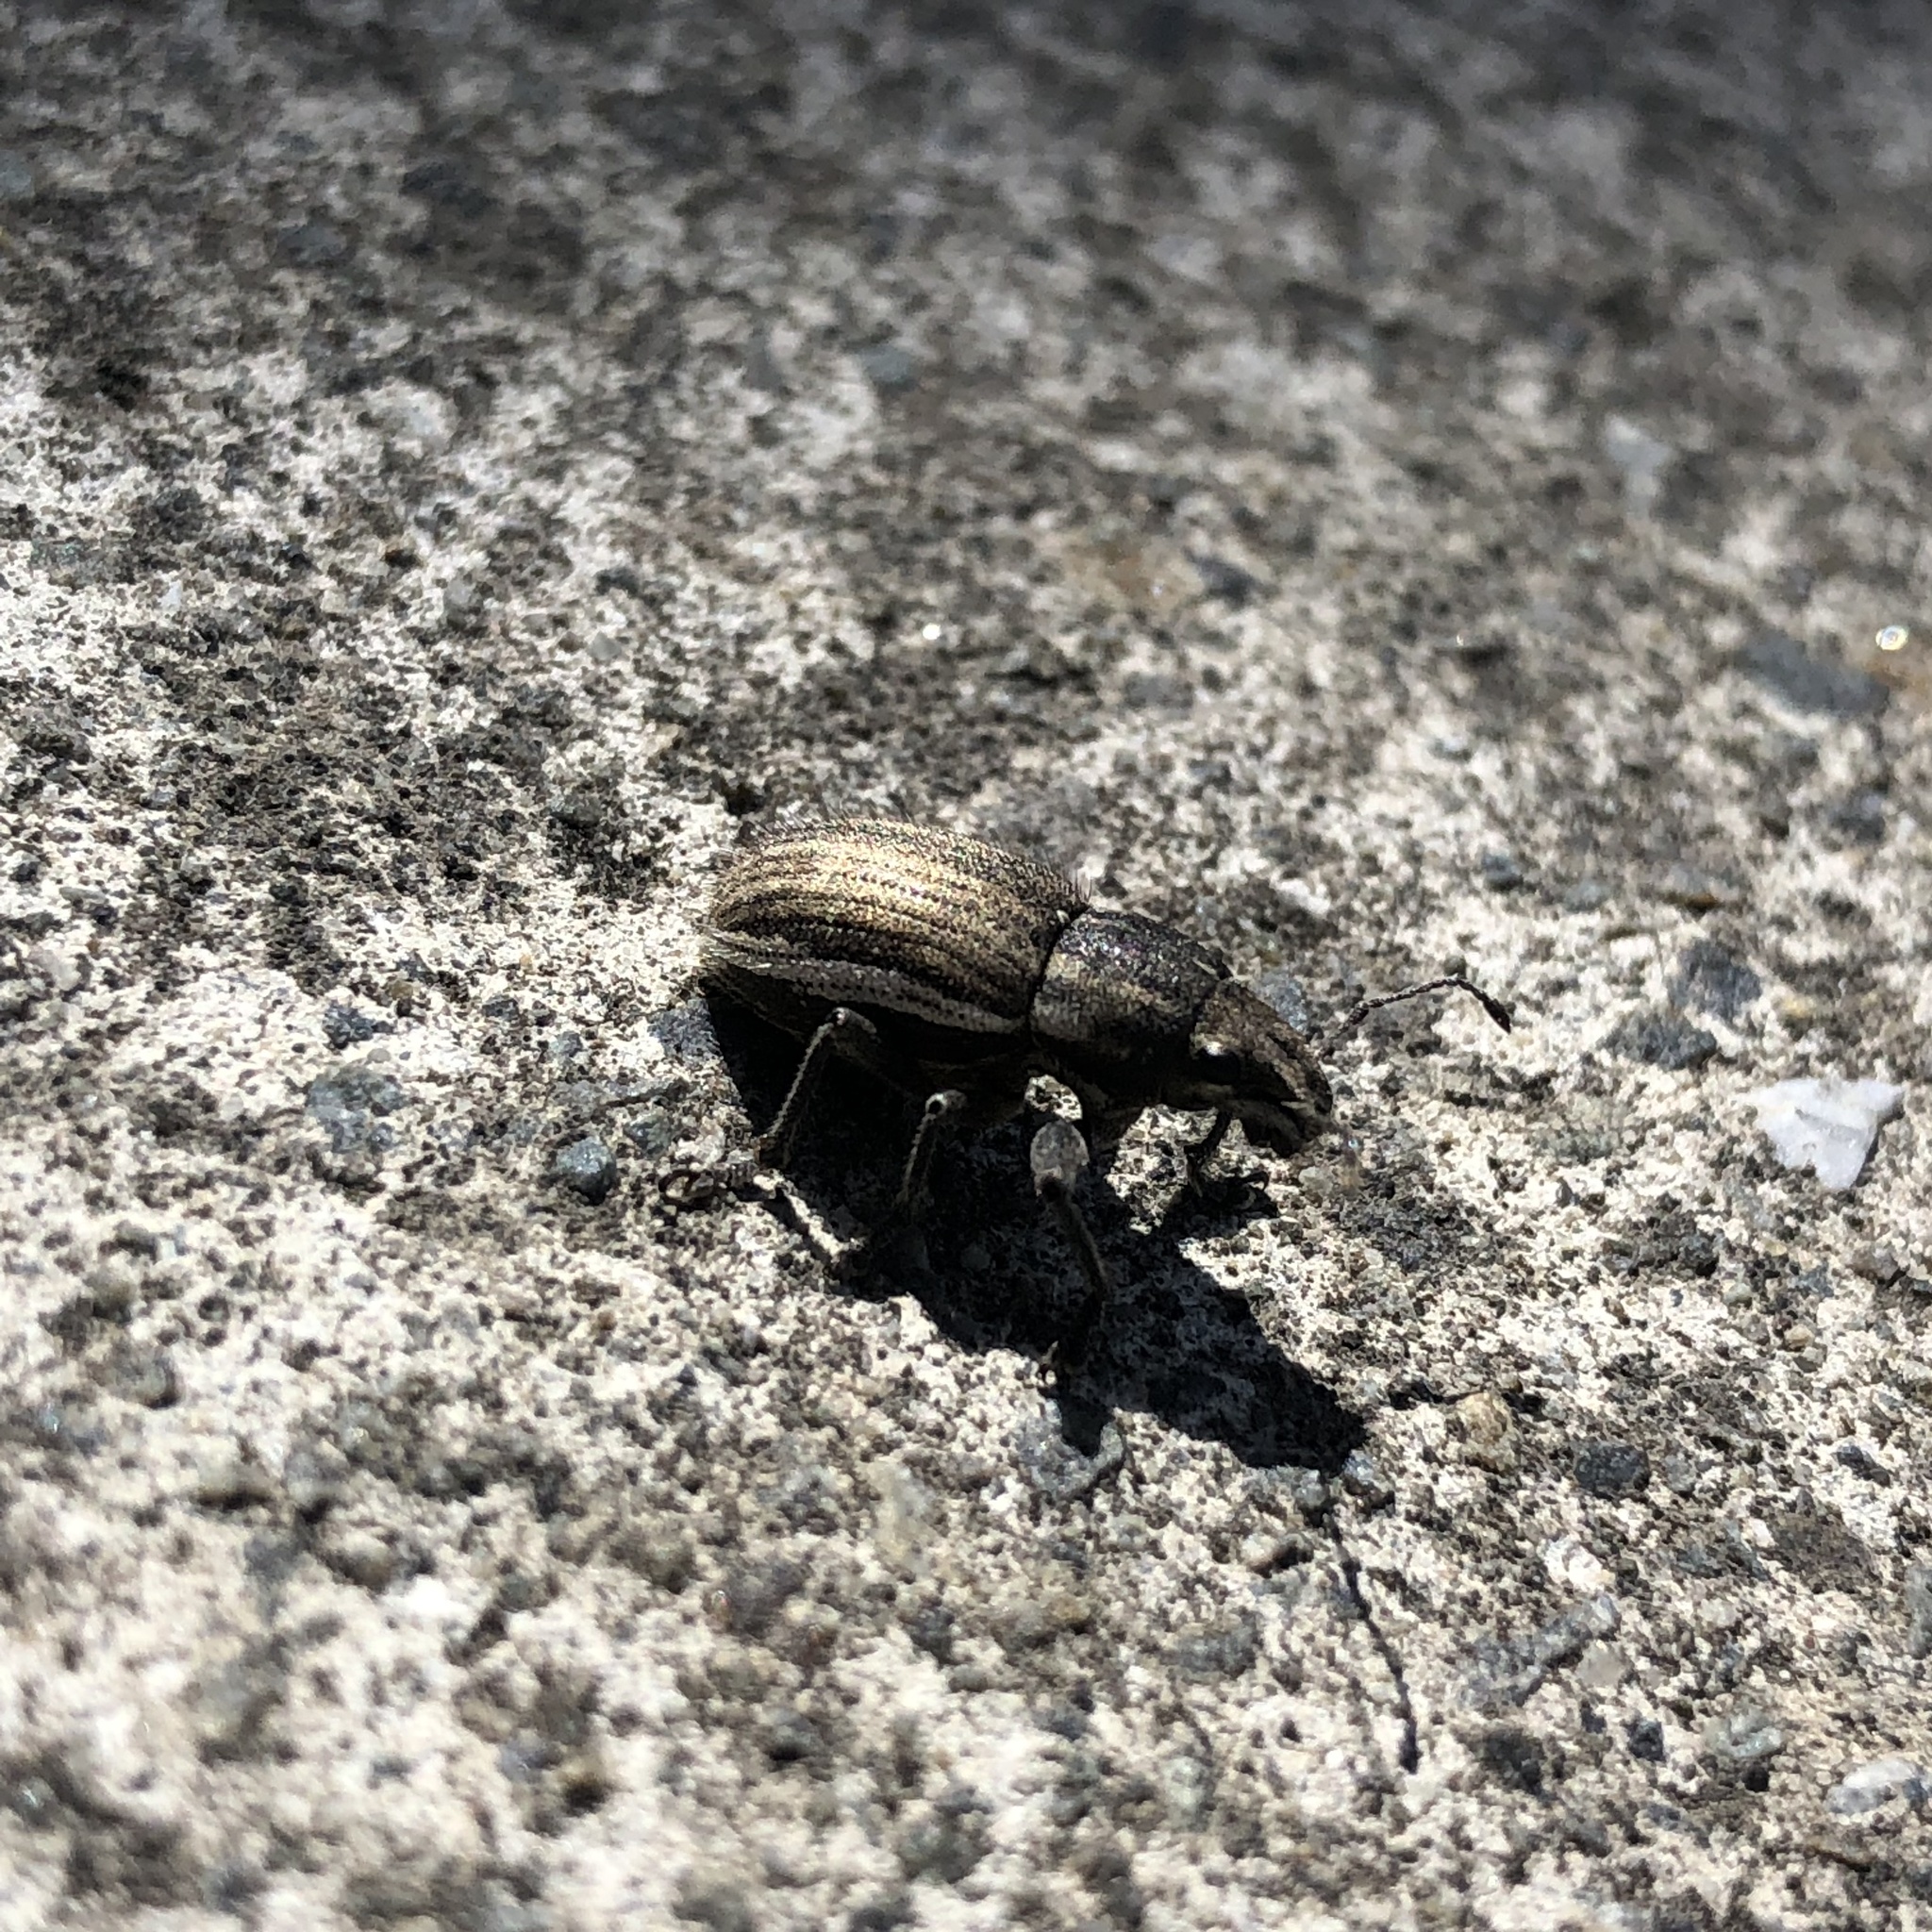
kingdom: Animalia
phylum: Arthropoda
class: Insecta
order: Coleoptera
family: Curculionidae
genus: Naupactus
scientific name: Naupactus leucoloma
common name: Whitefringed beetle
